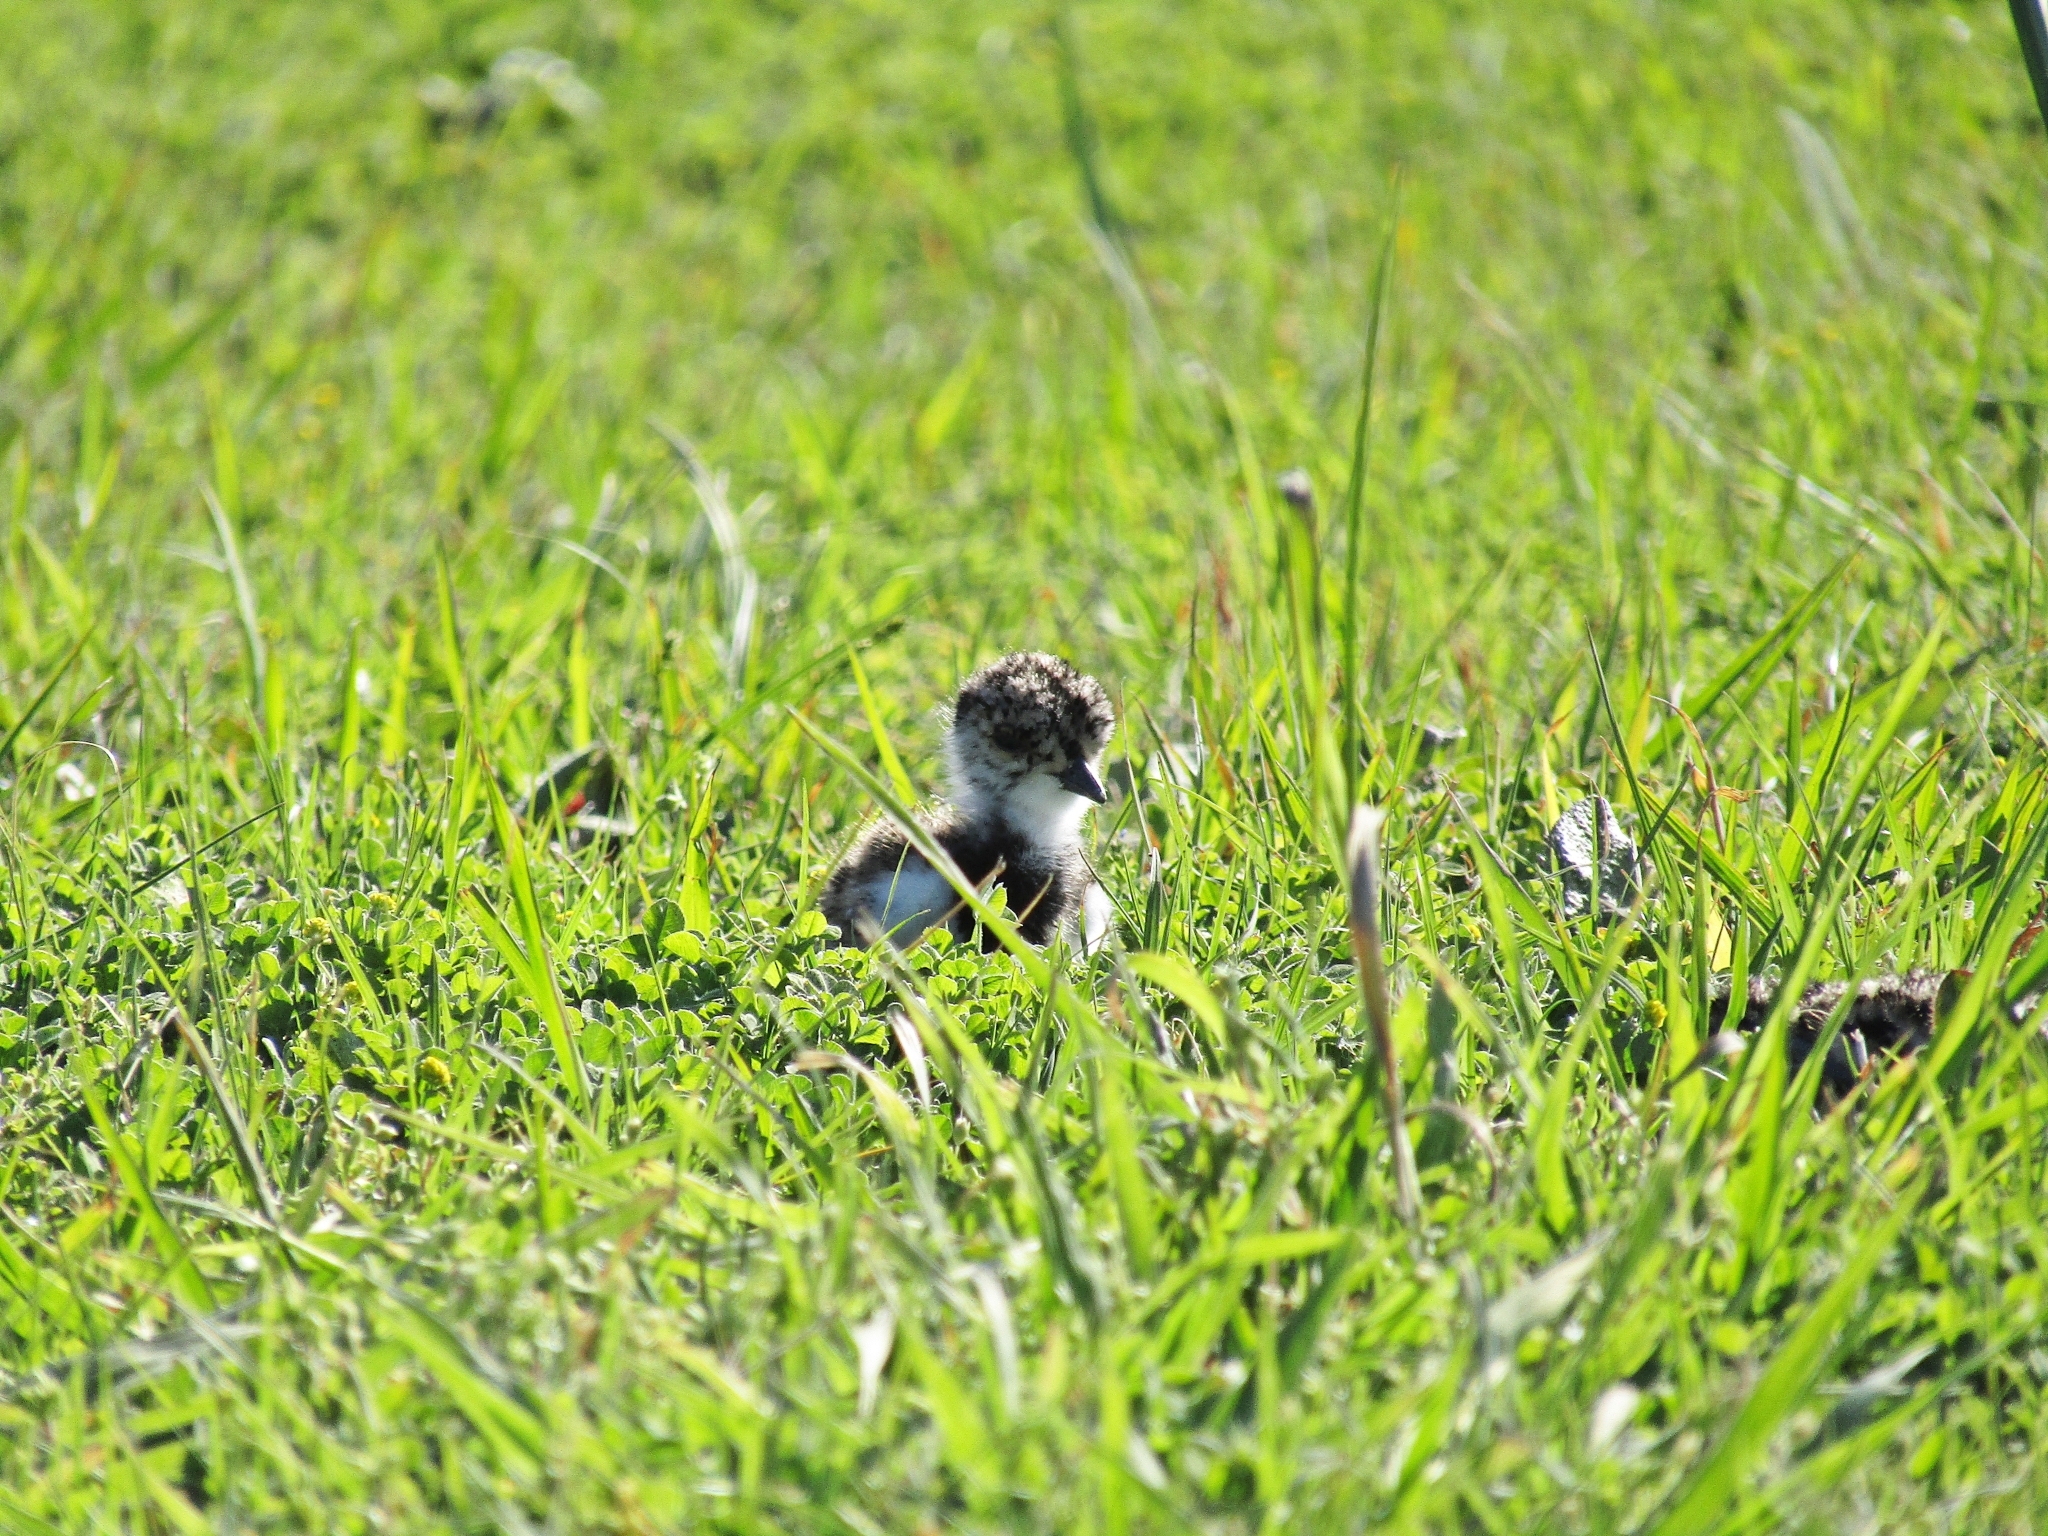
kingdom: Animalia
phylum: Chordata
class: Aves
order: Charadriiformes
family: Charadriidae
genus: Vanellus
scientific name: Vanellus chilensis
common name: Southern lapwing
